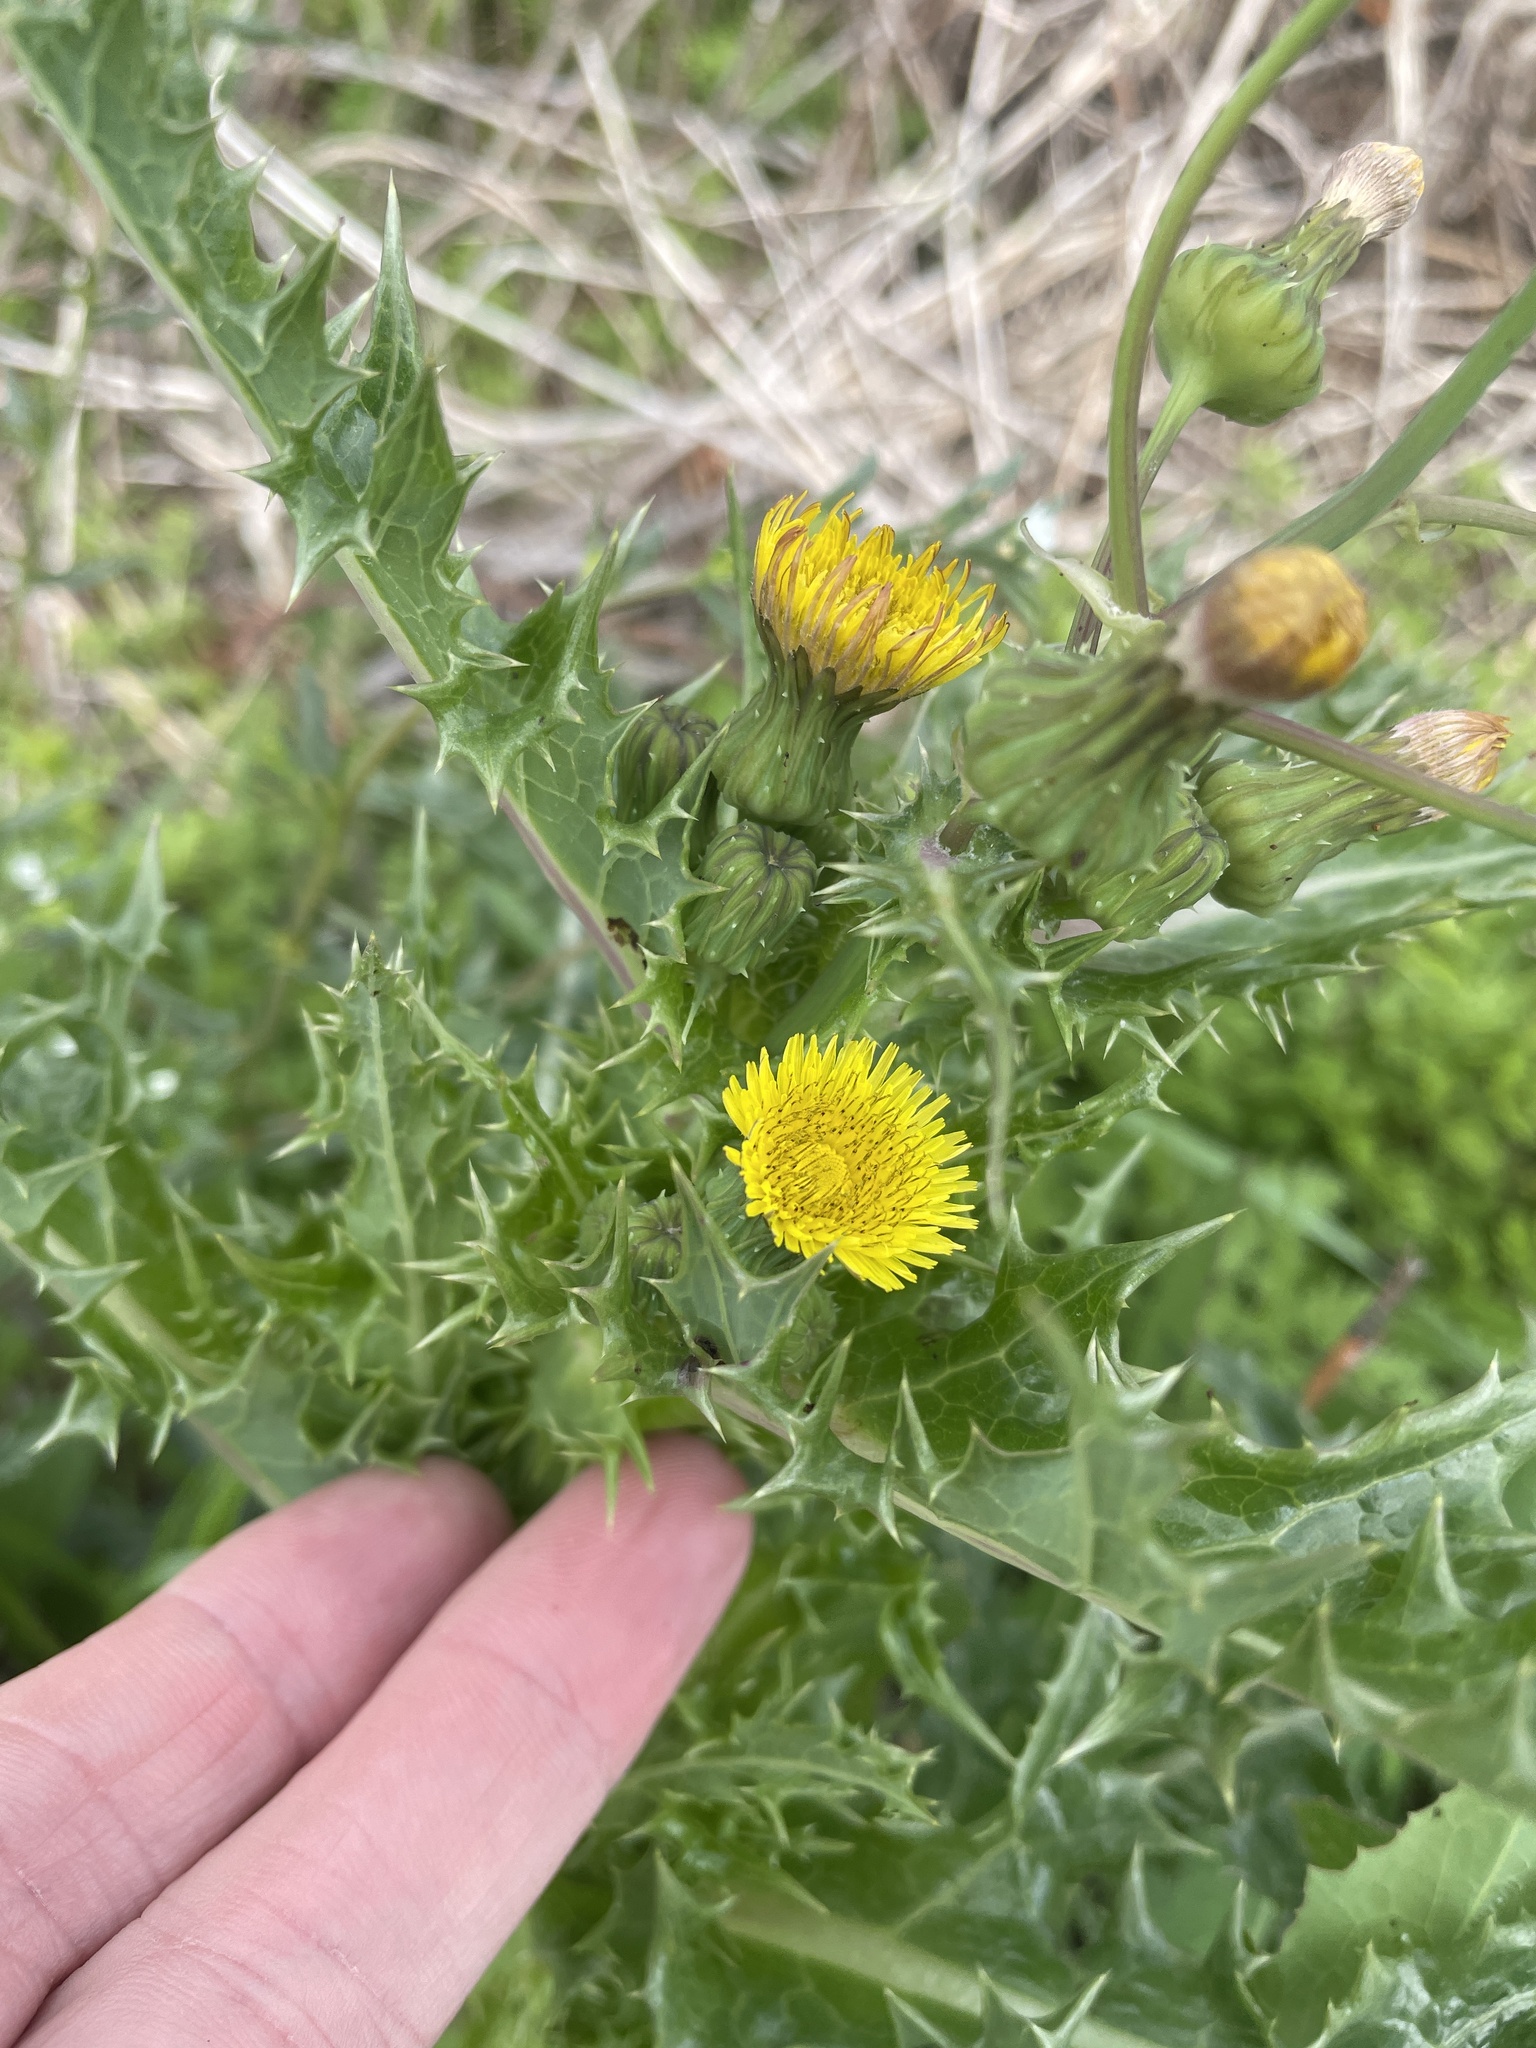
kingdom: Plantae
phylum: Tracheophyta
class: Magnoliopsida
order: Asterales
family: Asteraceae
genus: Sonchus
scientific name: Sonchus asper
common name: Prickly sow-thistle
